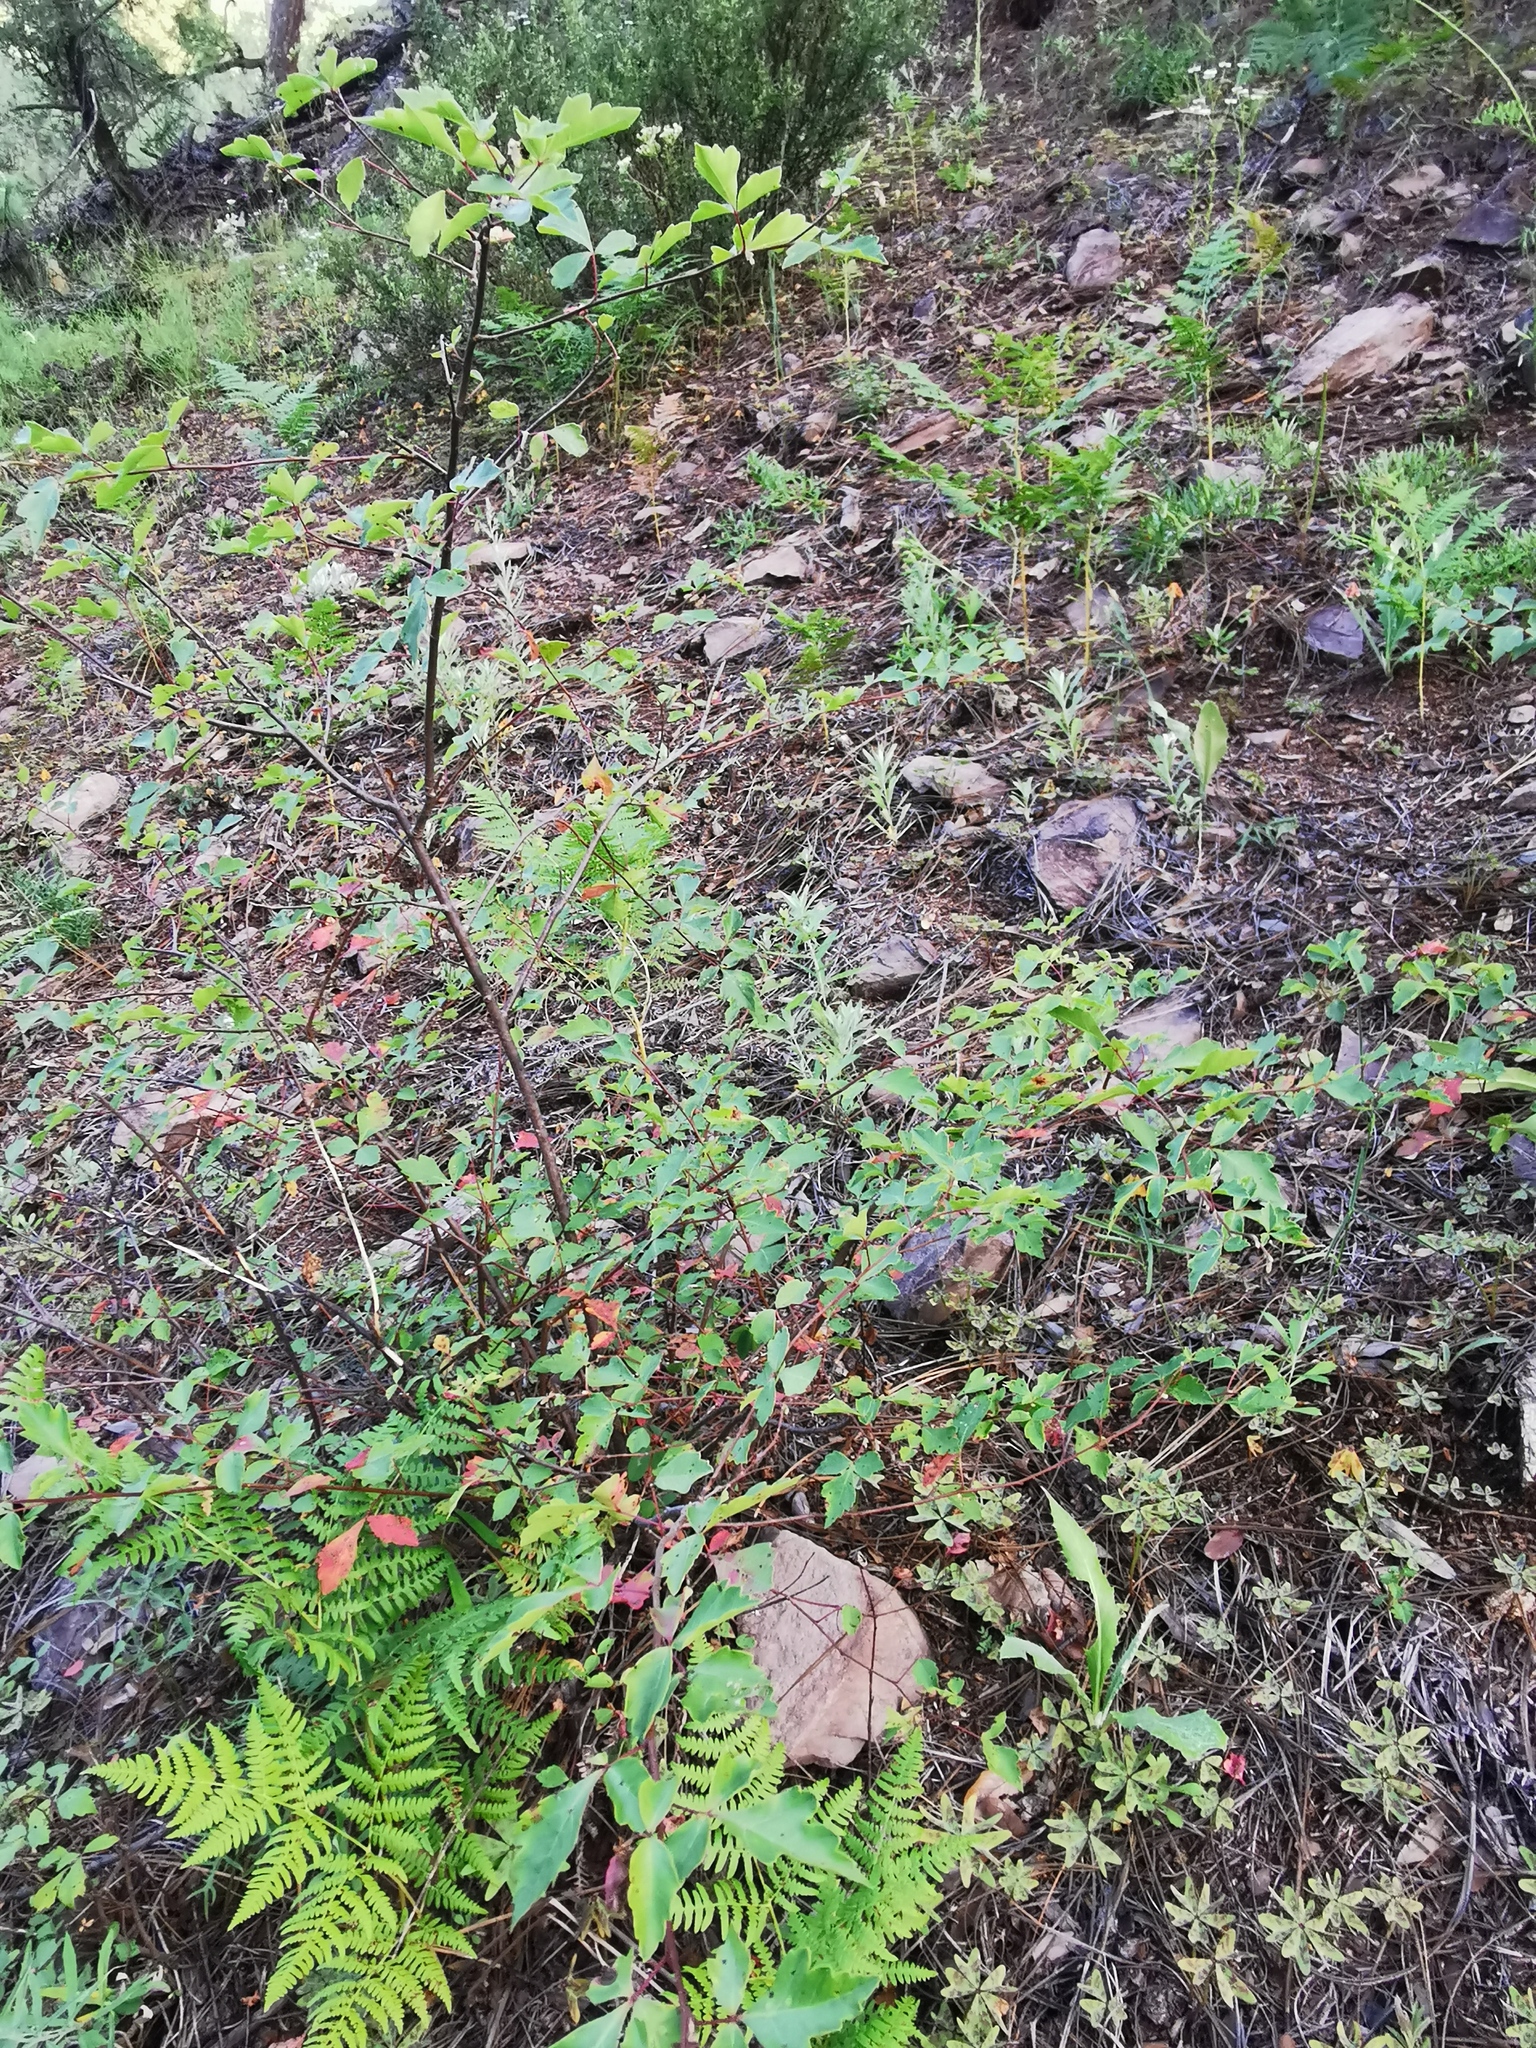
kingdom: Plantae
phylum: Tracheophyta
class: Magnoliopsida
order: Sapindales
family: Anacardiaceae
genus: Rhus
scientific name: Rhus aromatica
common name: Aromatic sumac
